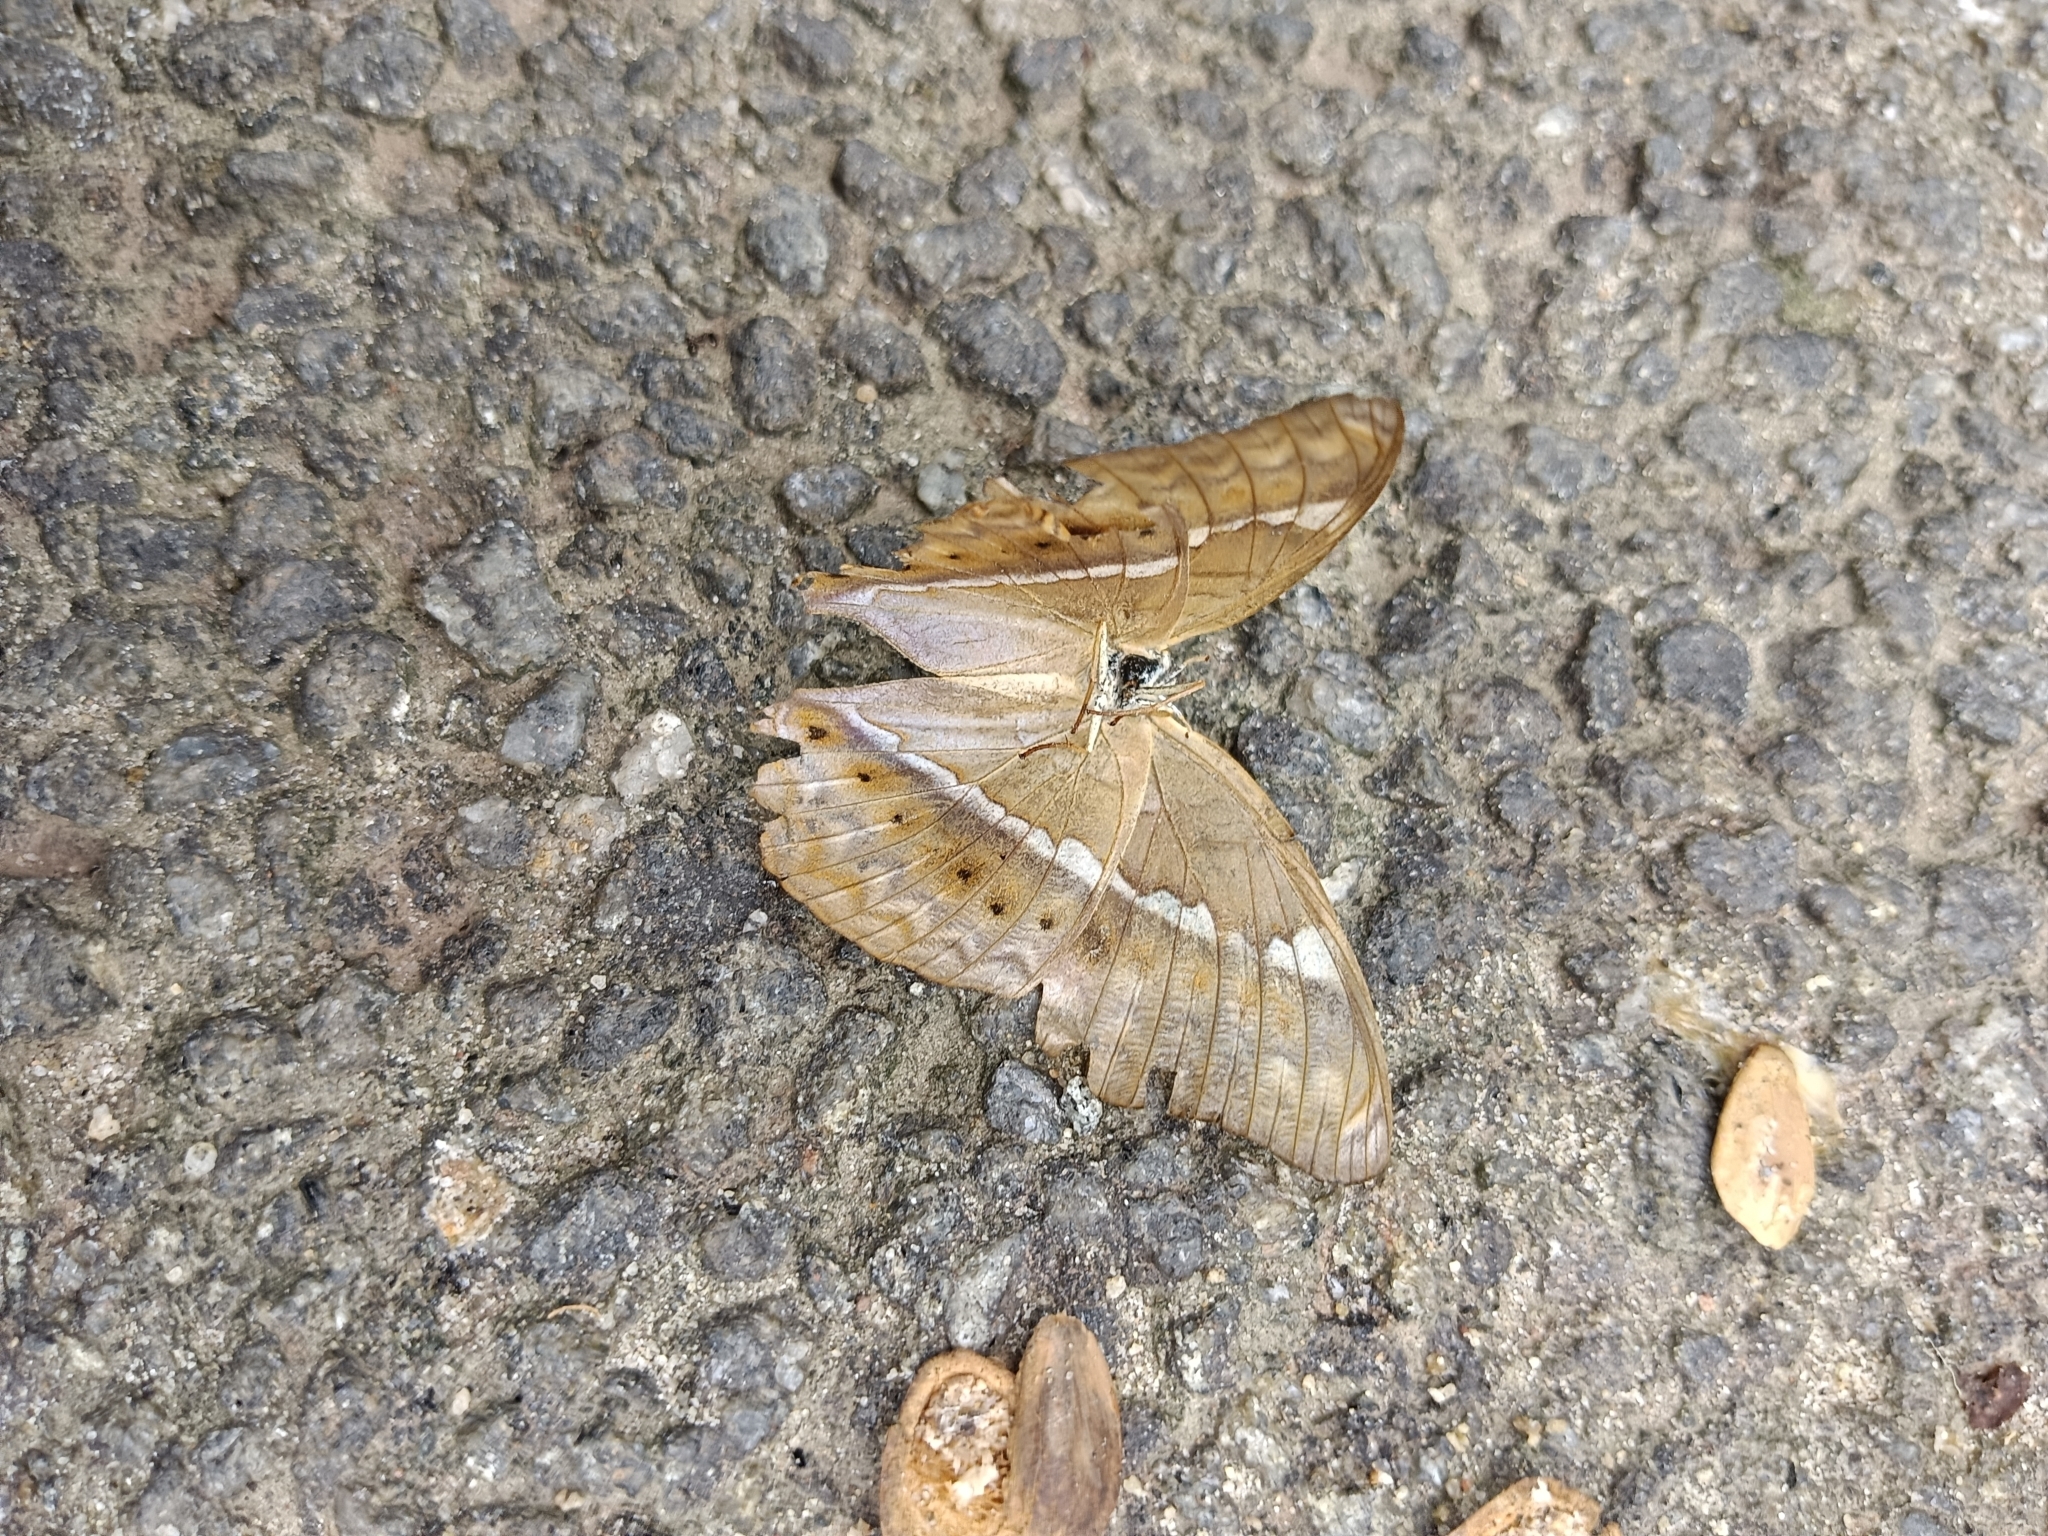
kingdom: Animalia
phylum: Arthropoda
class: Insecta
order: Lepidoptera
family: Nymphalidae
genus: Cirrochroa
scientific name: Cirrochroa thais
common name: Tamil yeoman
